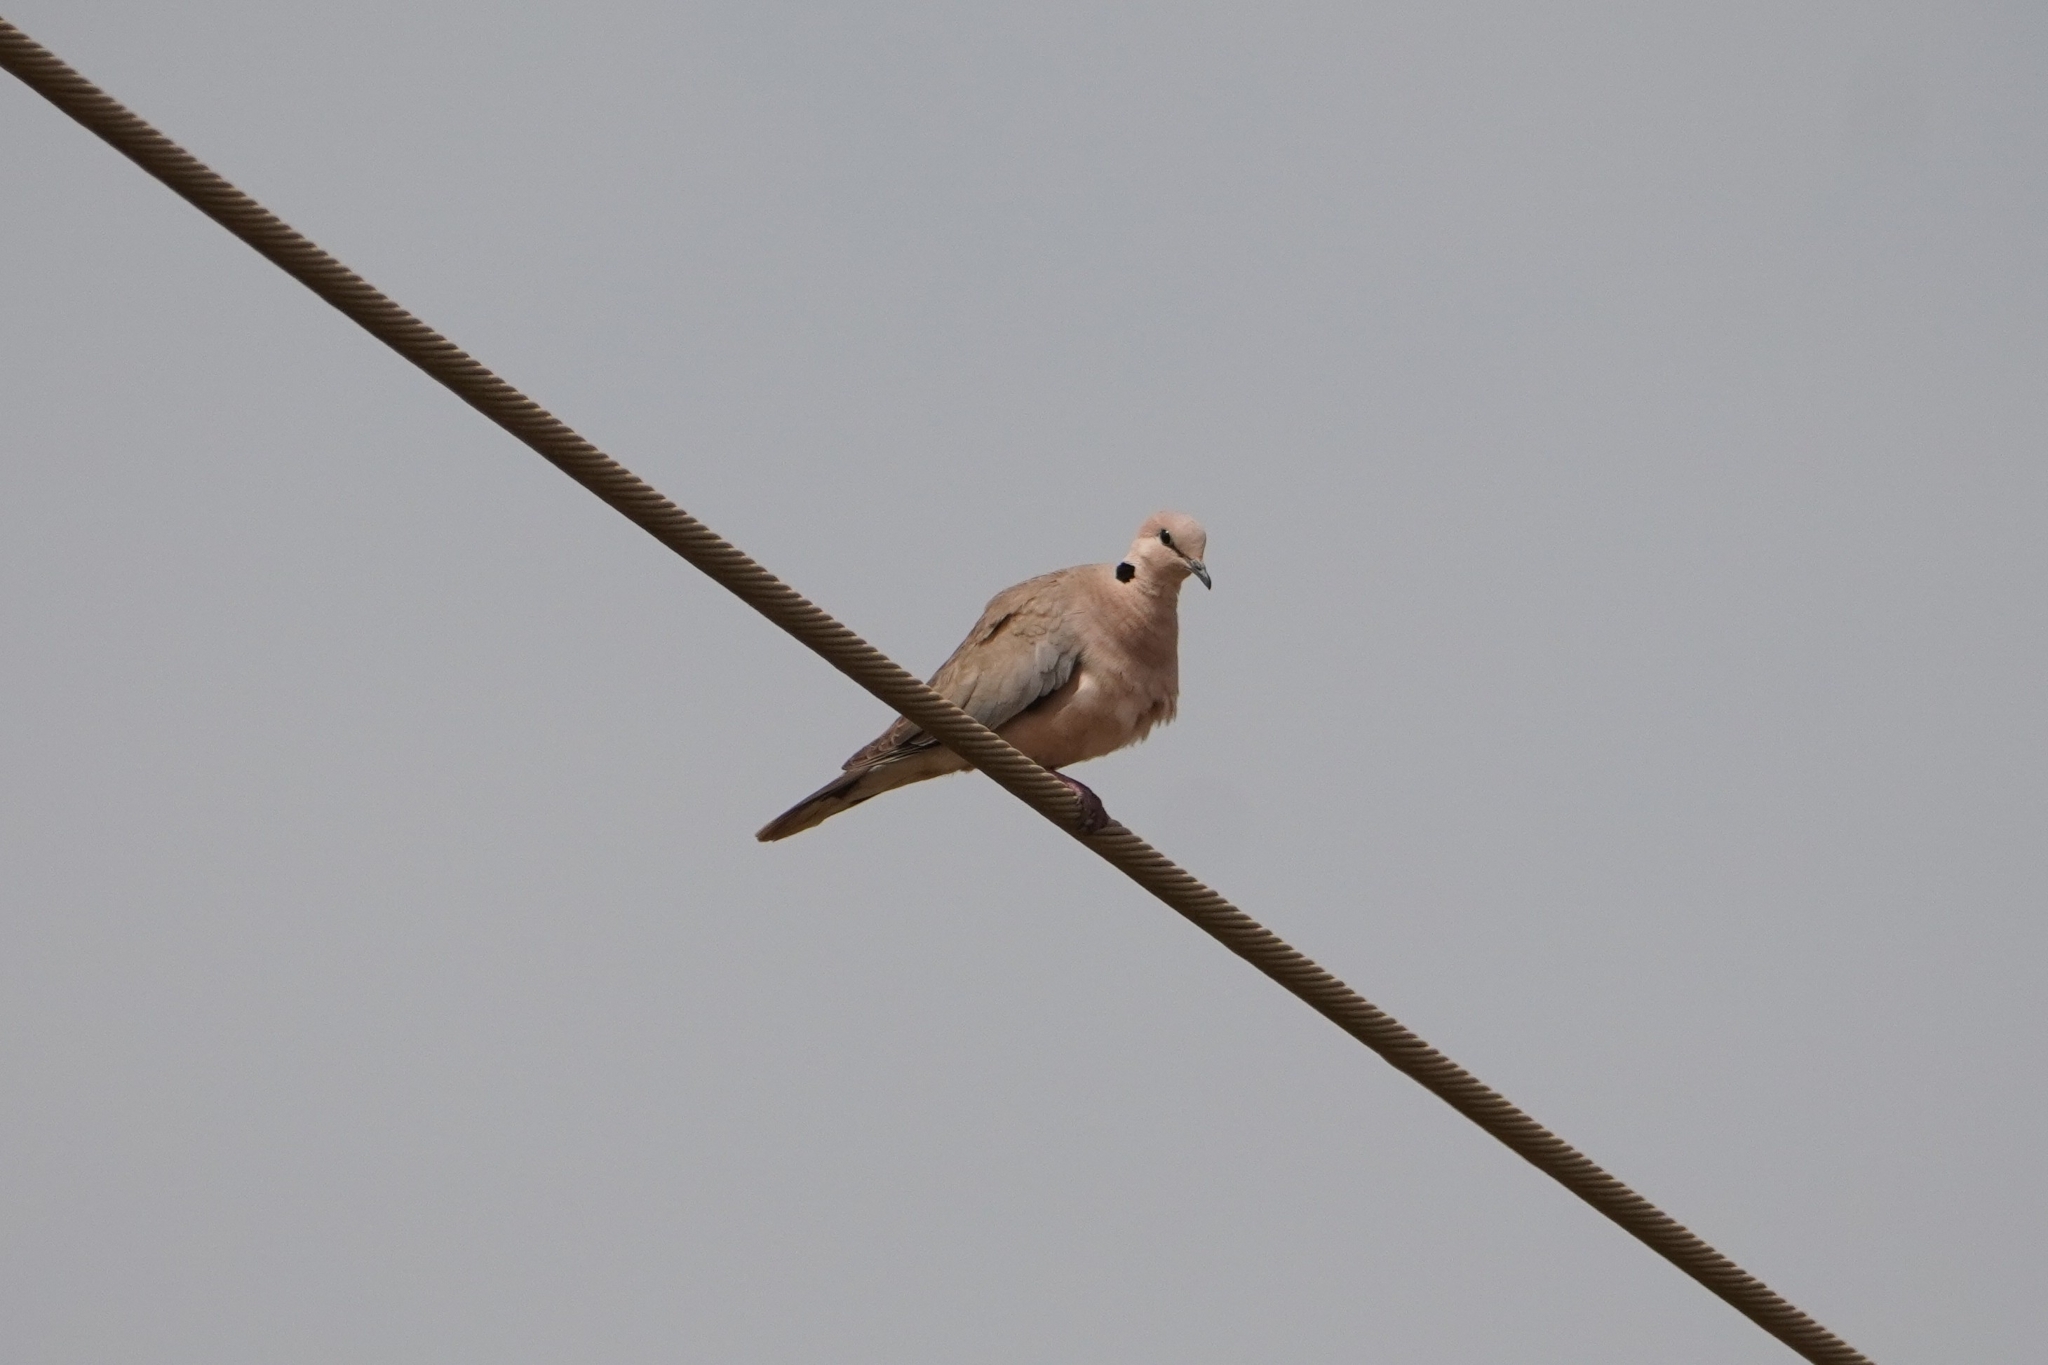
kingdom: Animalia
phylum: Chordata
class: Aves
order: Columbiformes
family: Columbidae
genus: Streptopelia
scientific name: Streptopelia vinacea
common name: Vinaceous dove
